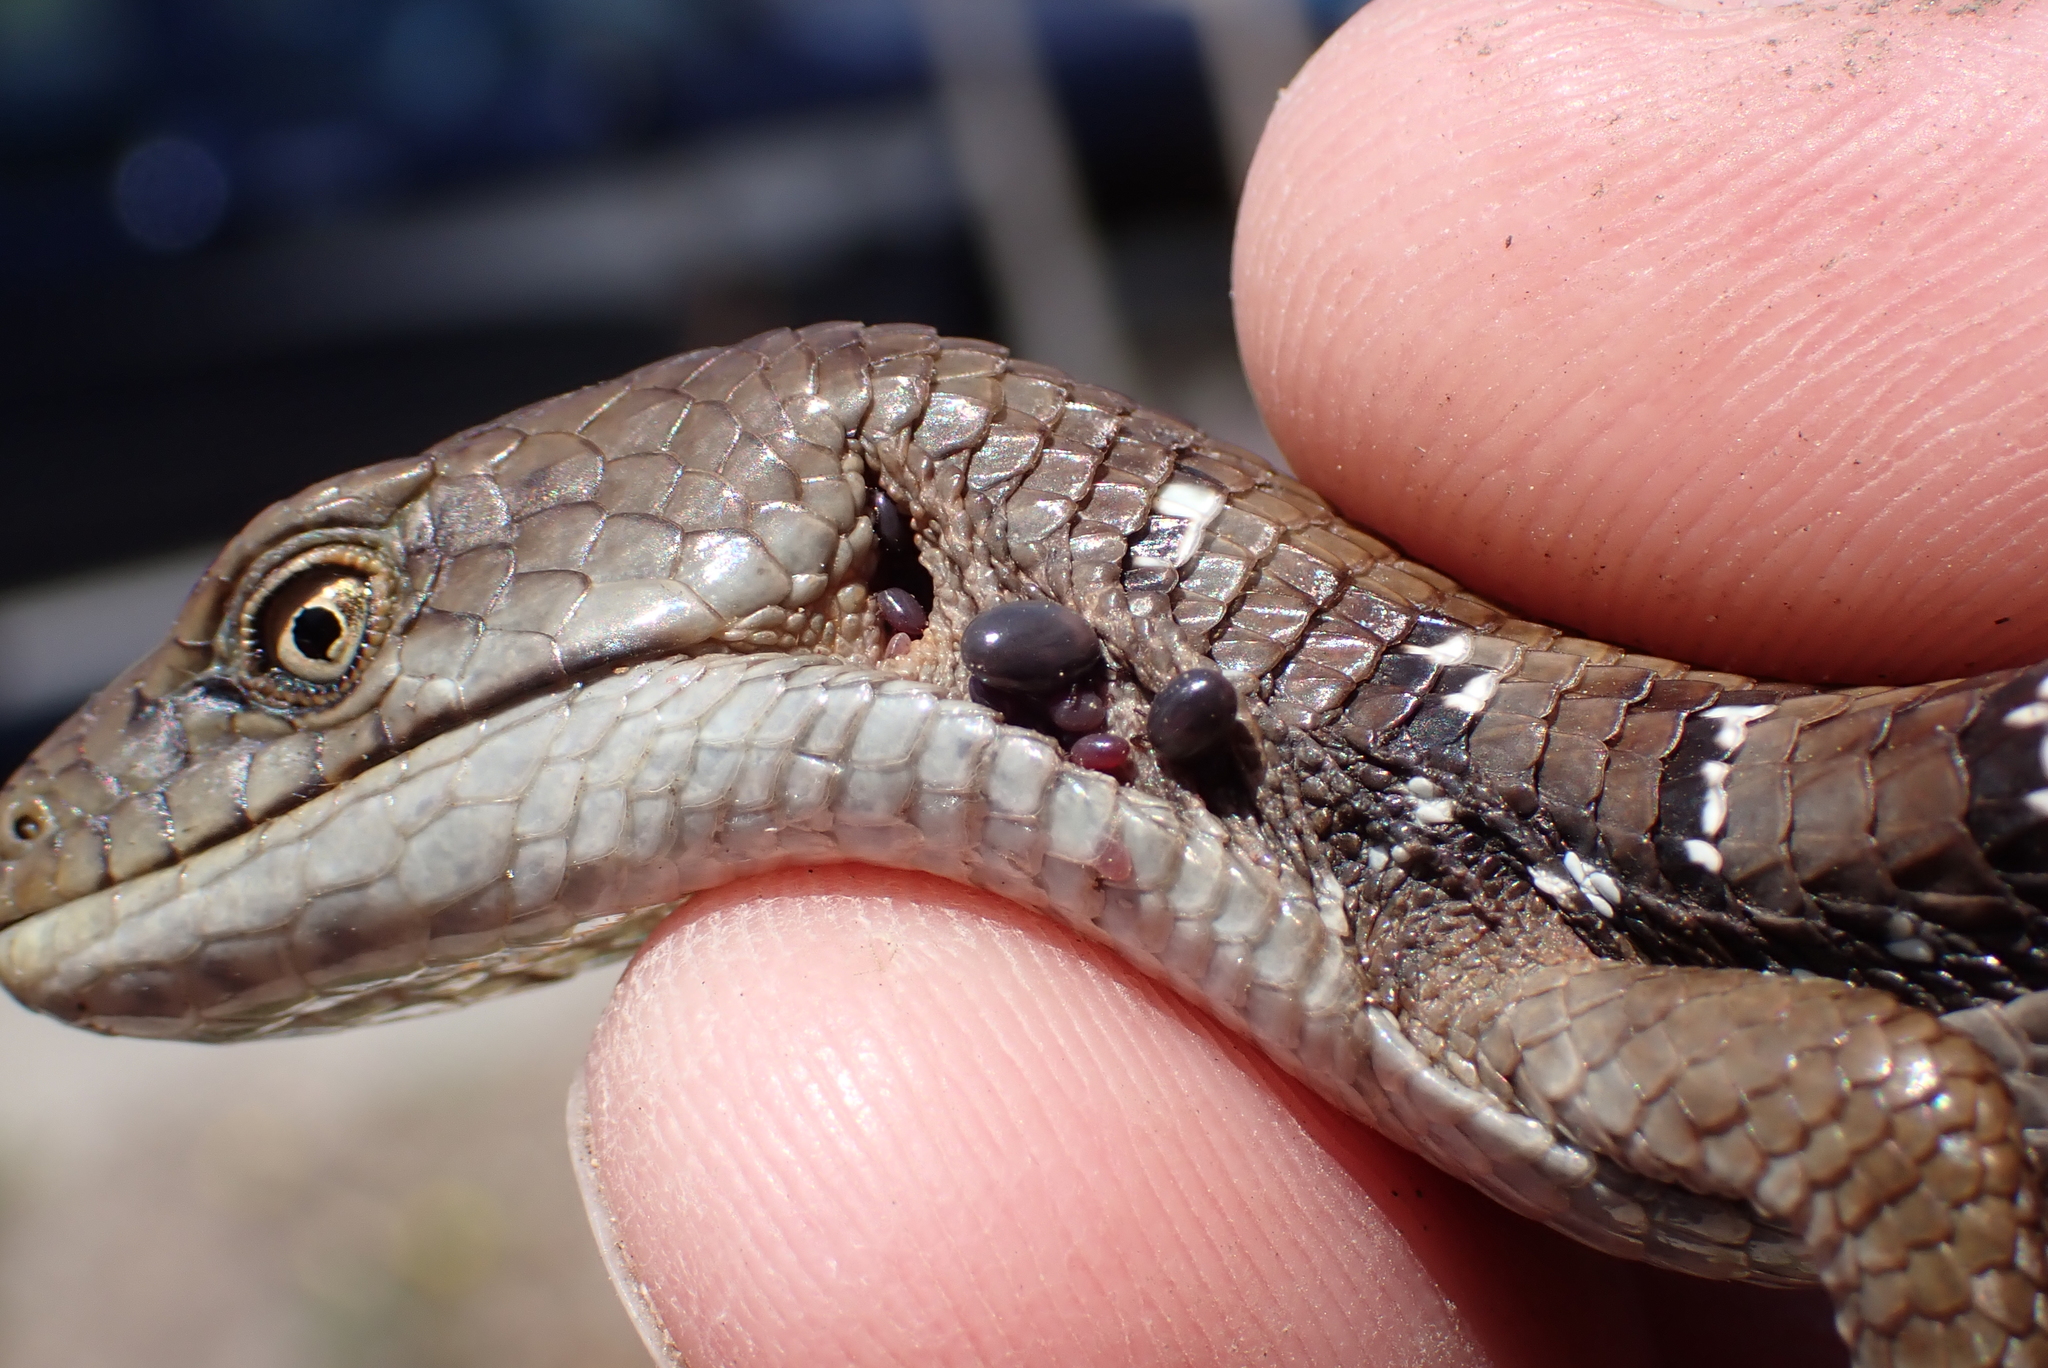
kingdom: Animalia
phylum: Chordata
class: Squamata
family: Anguidae
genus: Elgaria
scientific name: Elgaria multicarinata
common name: Southern alligator lizard
